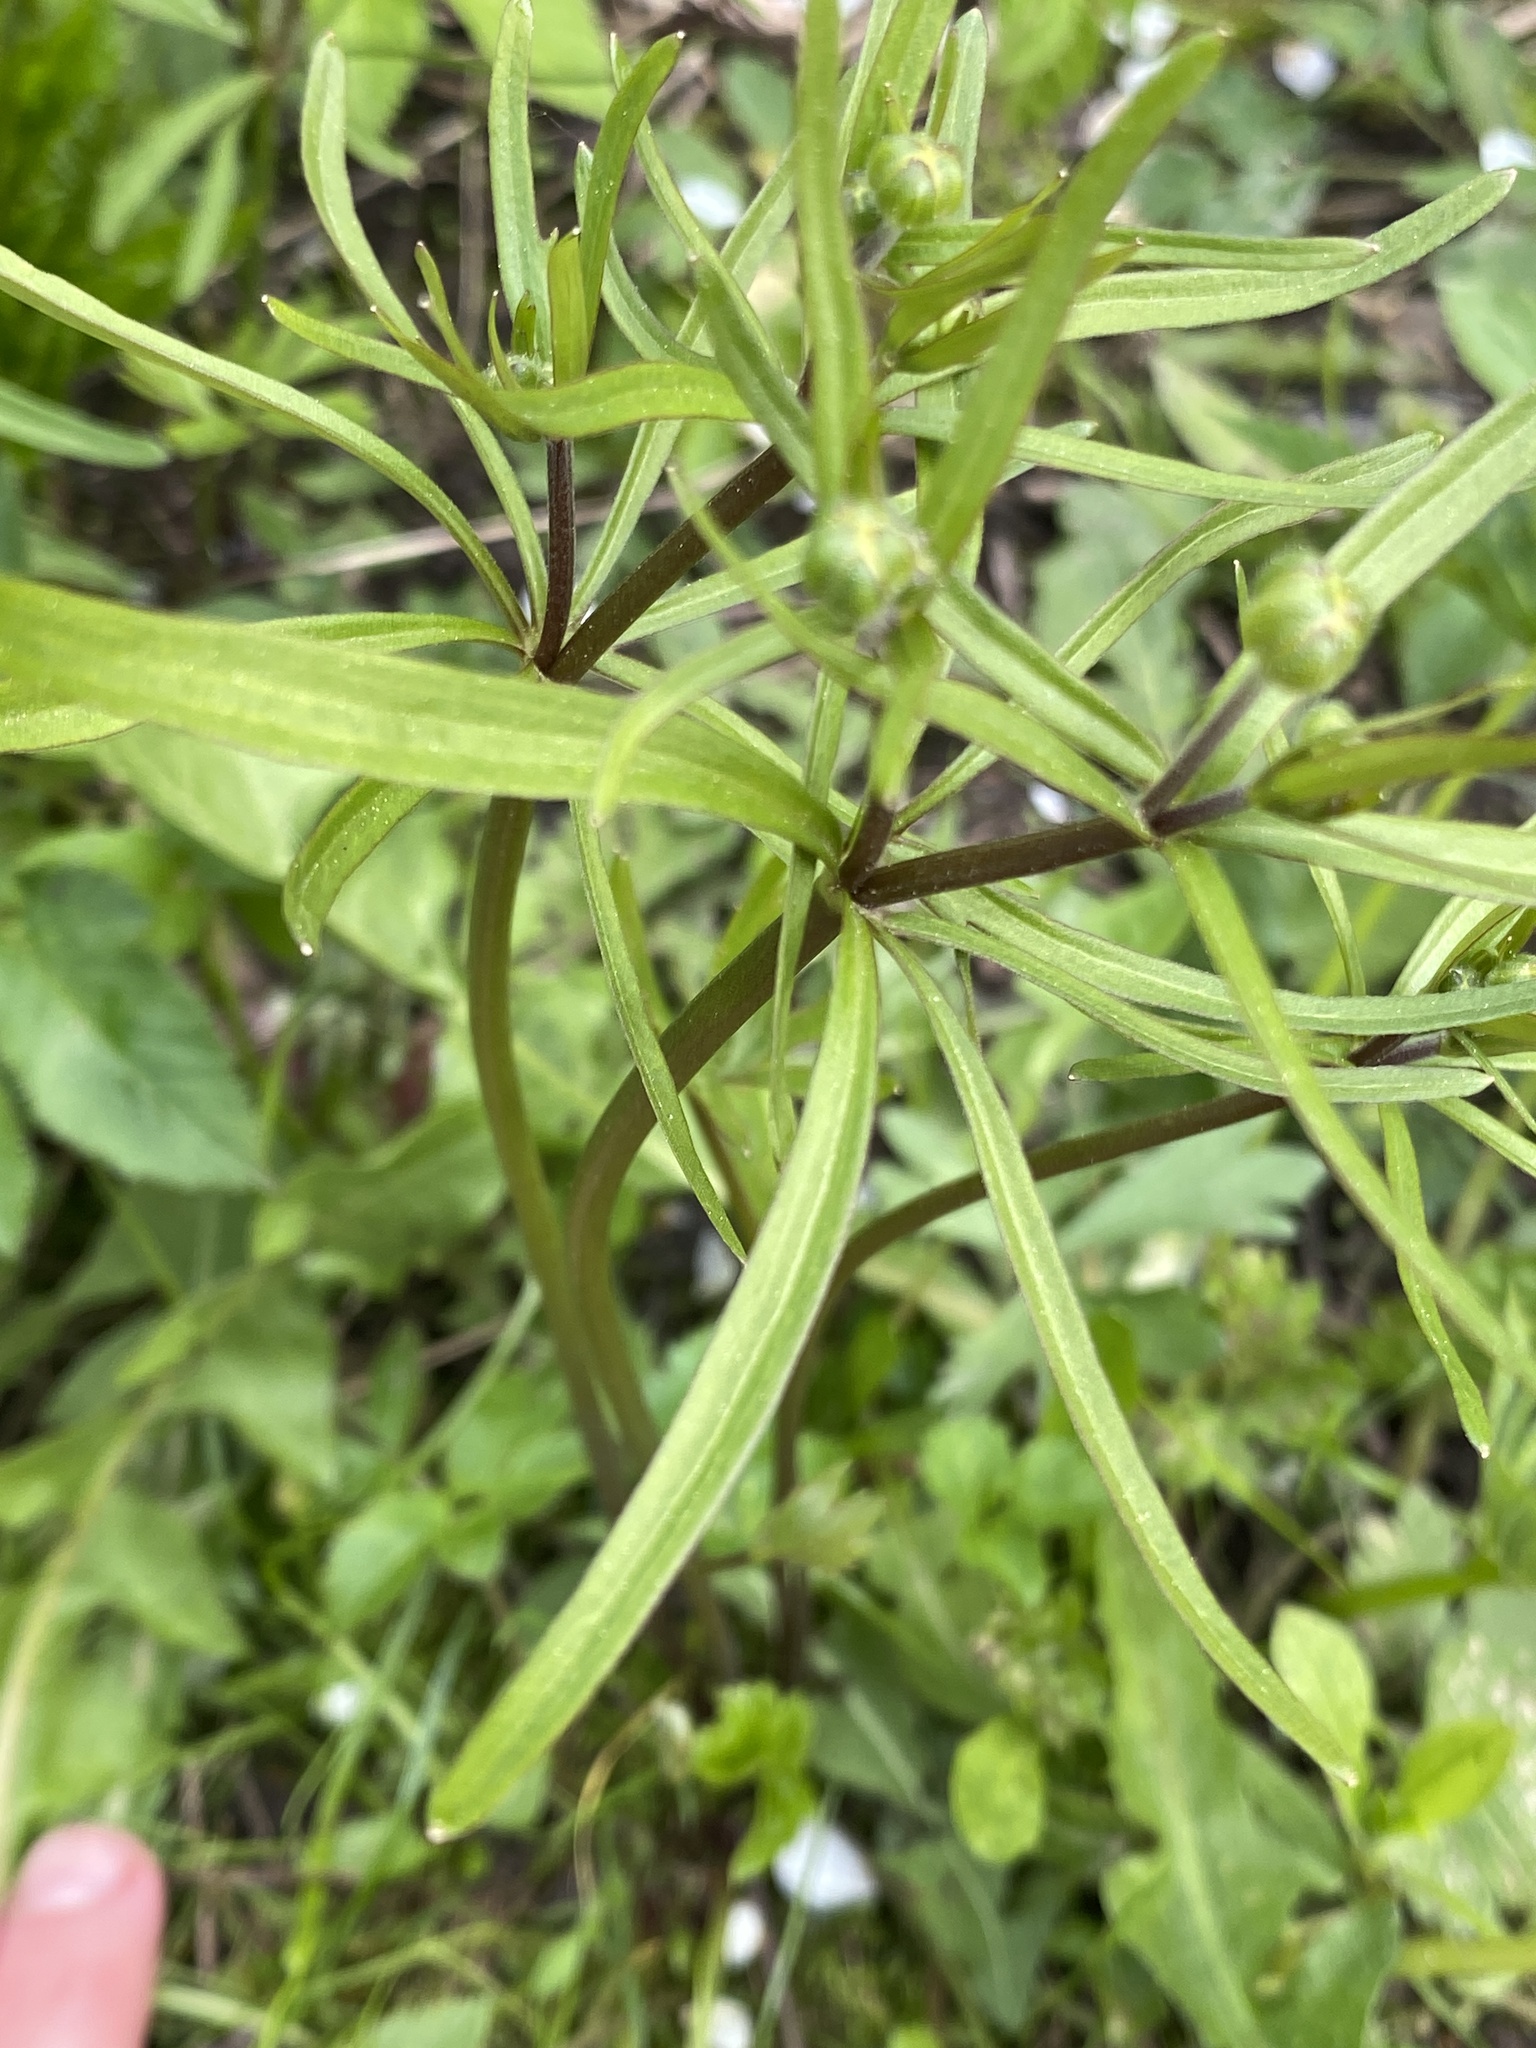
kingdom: Plantae
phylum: Tracheophyta
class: Magnoliopsida
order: Ranunculales
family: Ranunculaceae
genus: Ranunculus
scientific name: Ranunculus auricomus
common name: Goldilocks buttercup
